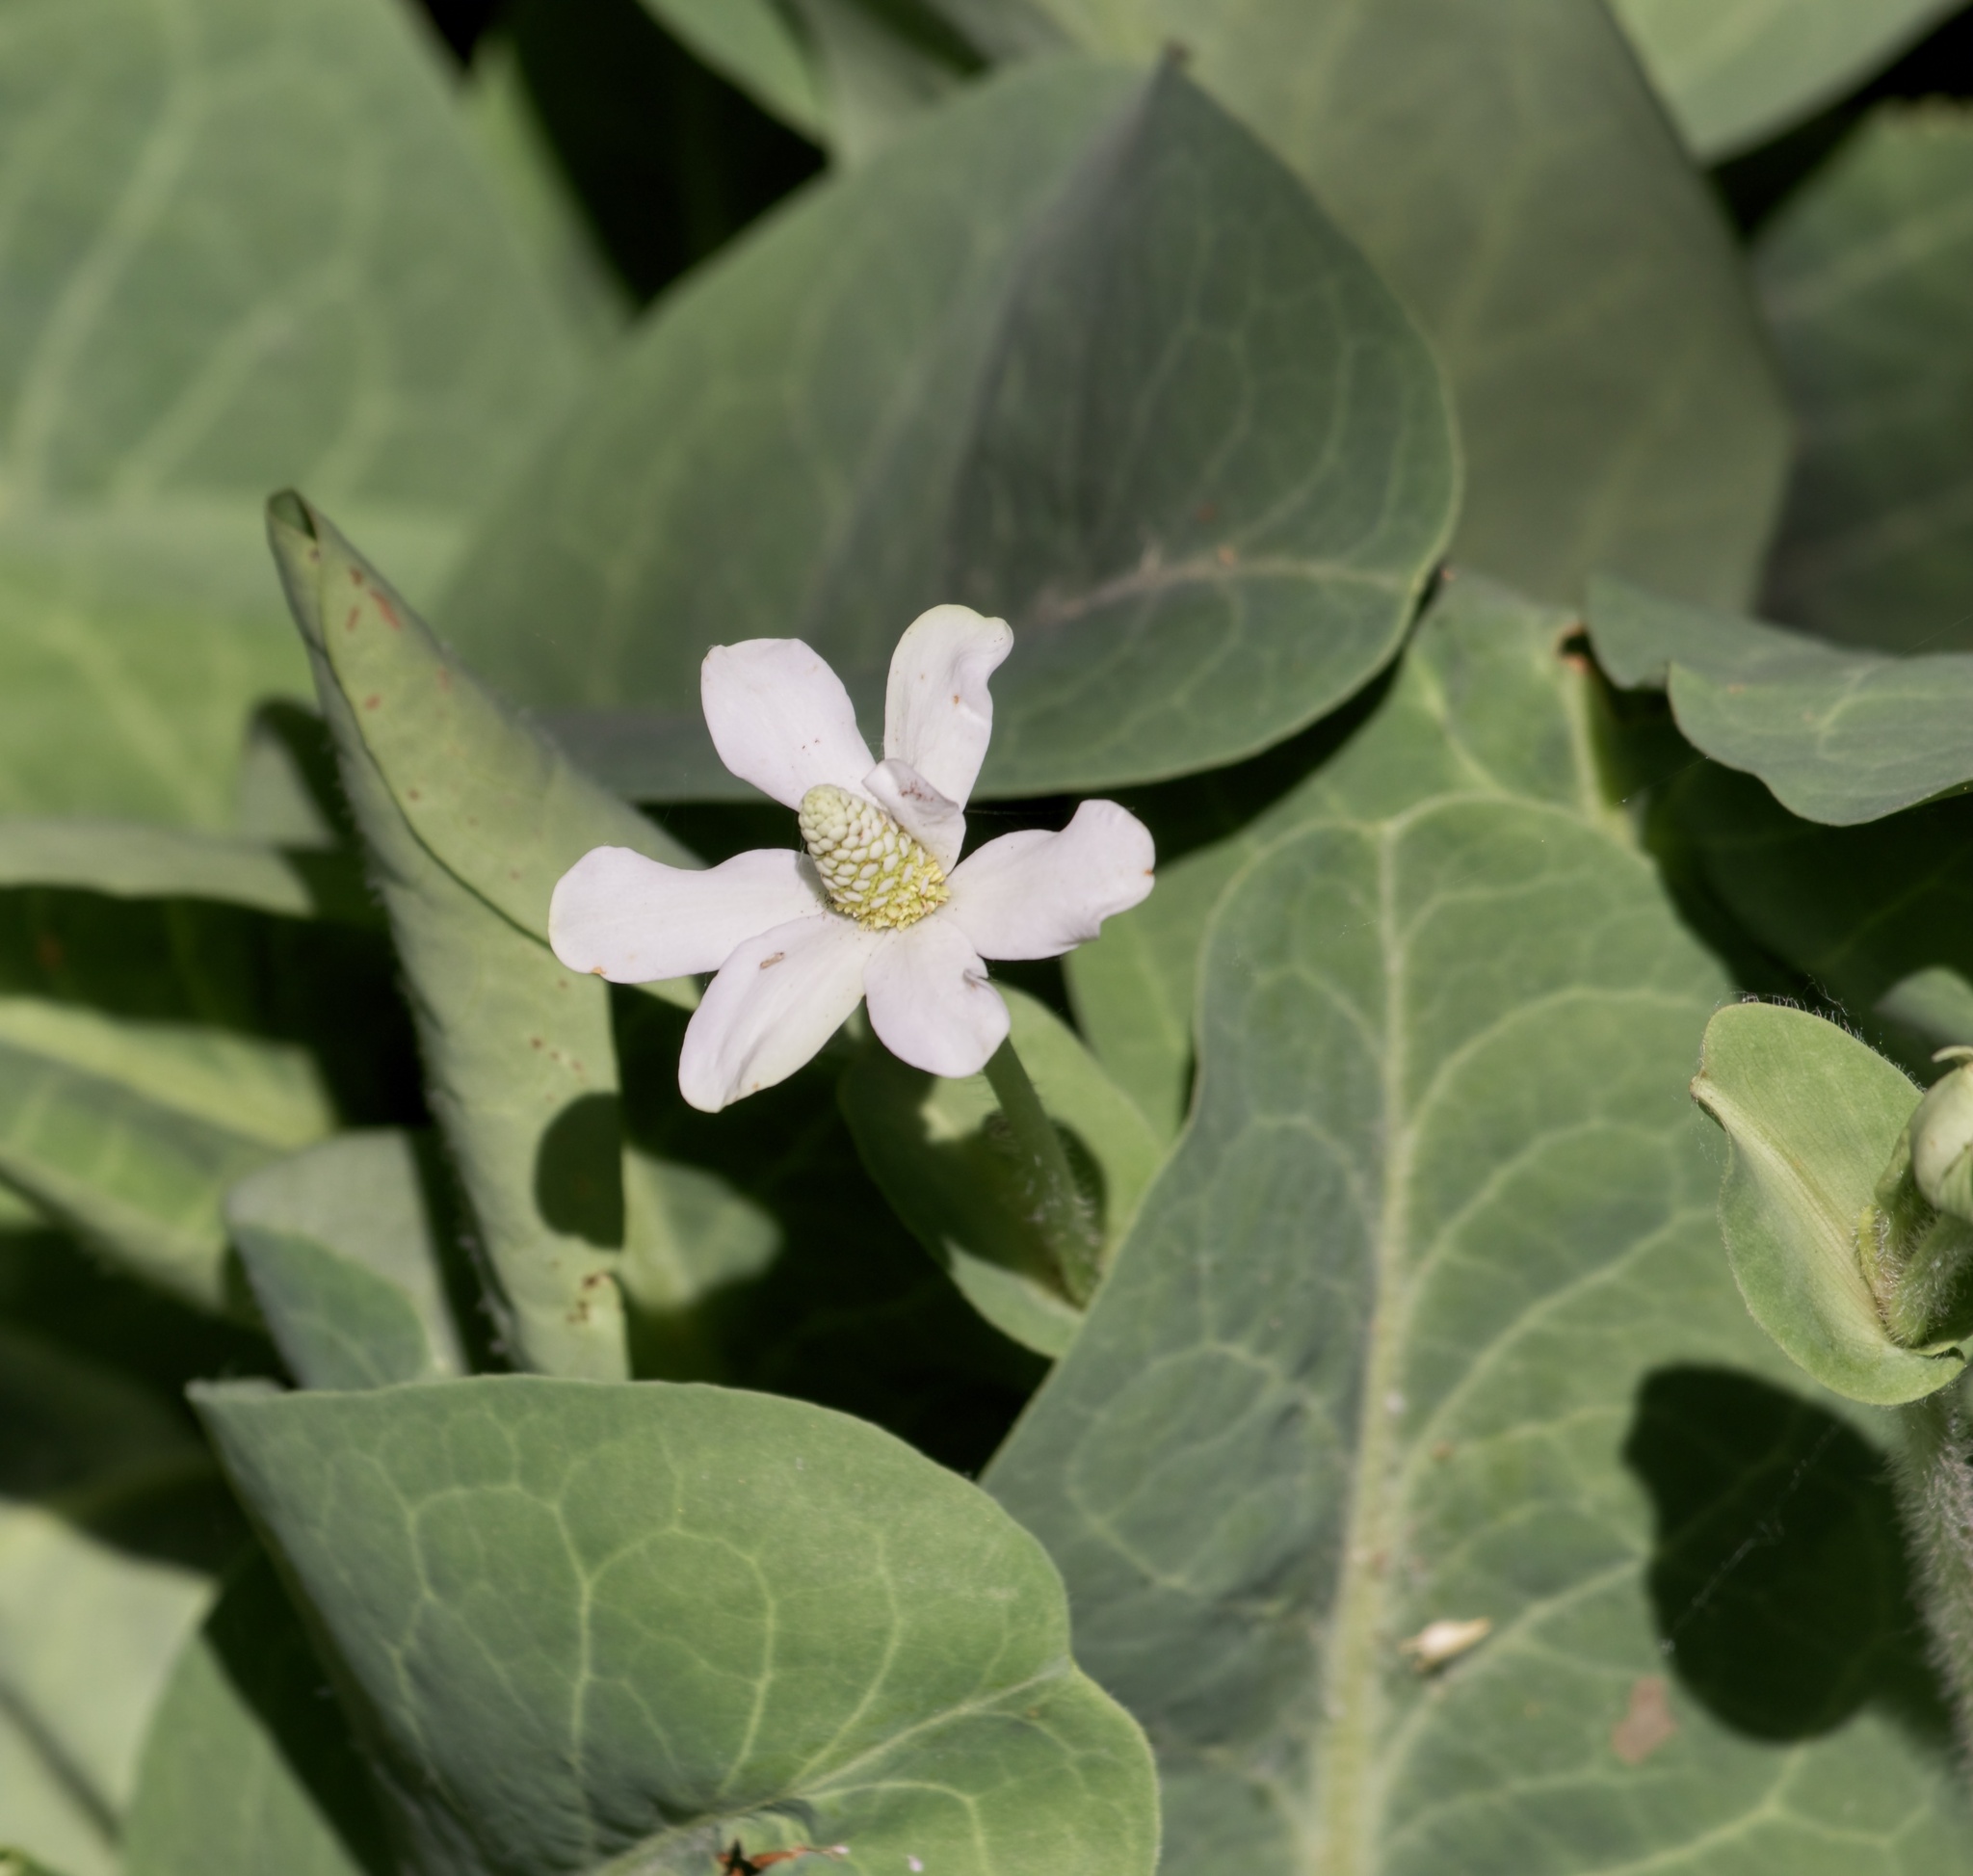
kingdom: Plantae
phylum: Tracheophyta
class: Magnoliopsida
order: Piperales
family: Saururaceae
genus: Anemopsis
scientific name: Anemopsis californica
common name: Apache-beads
